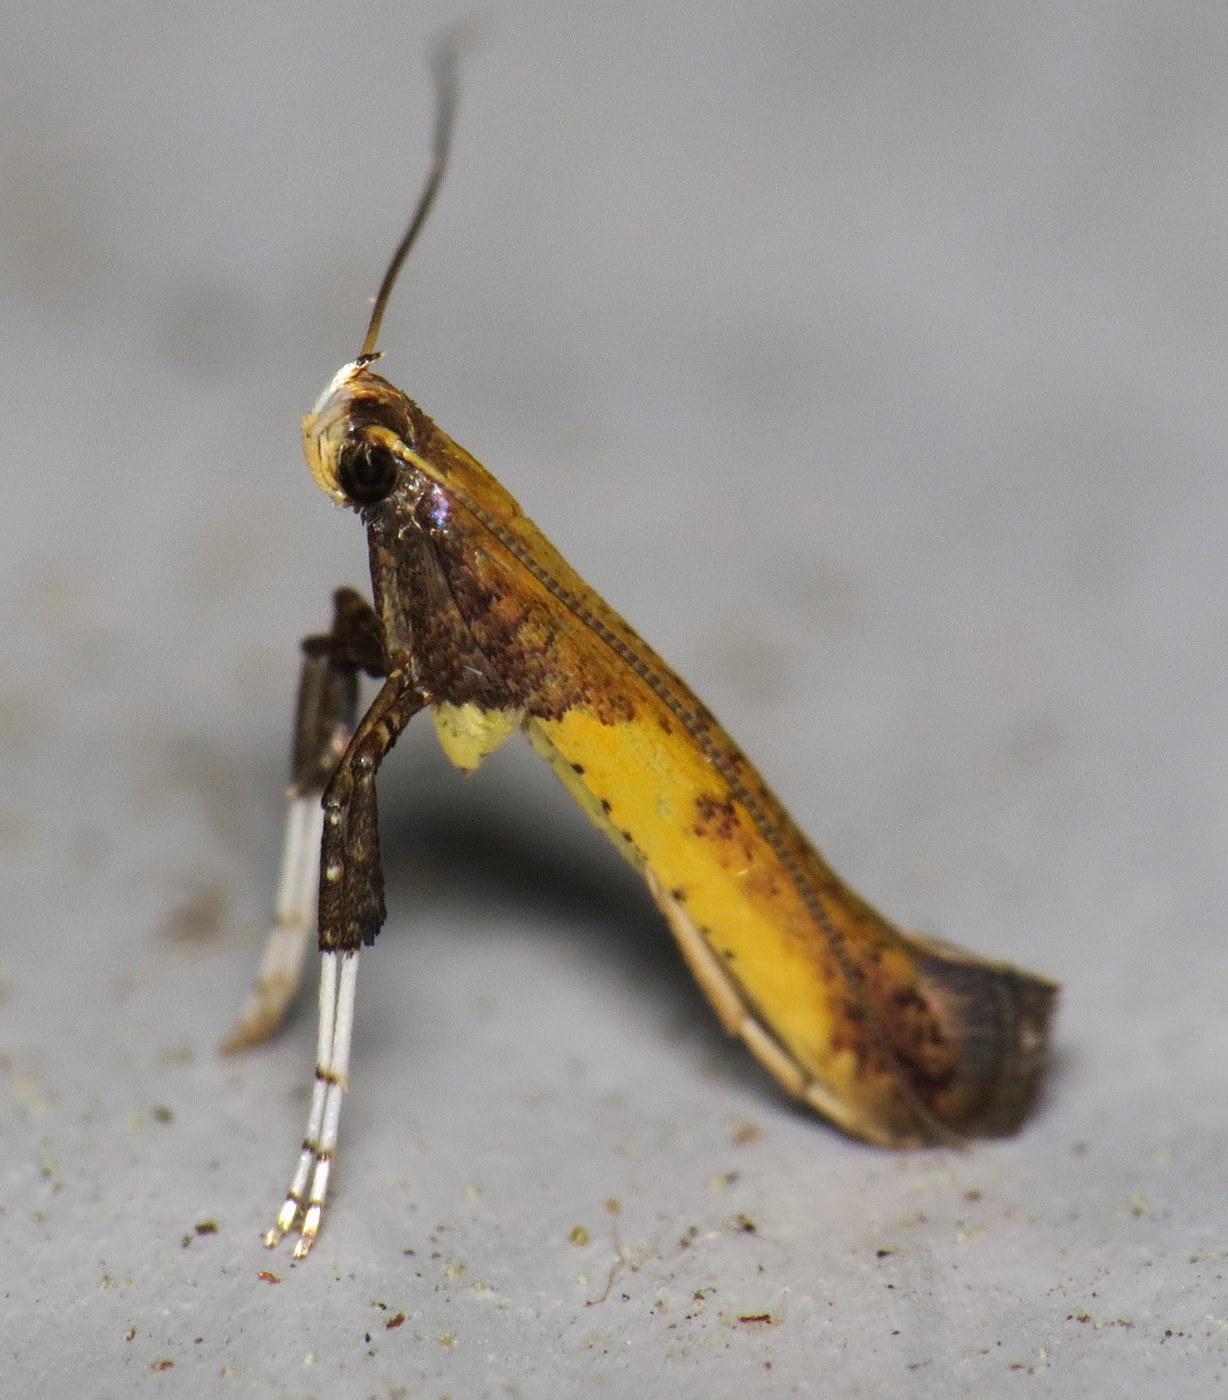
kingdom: Animalia
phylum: Arthropoda
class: Insecta
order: Lepidoptera
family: Gracillariidae
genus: Caloptilia
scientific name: Caloptilia azaleella
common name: Azalea leafminer
